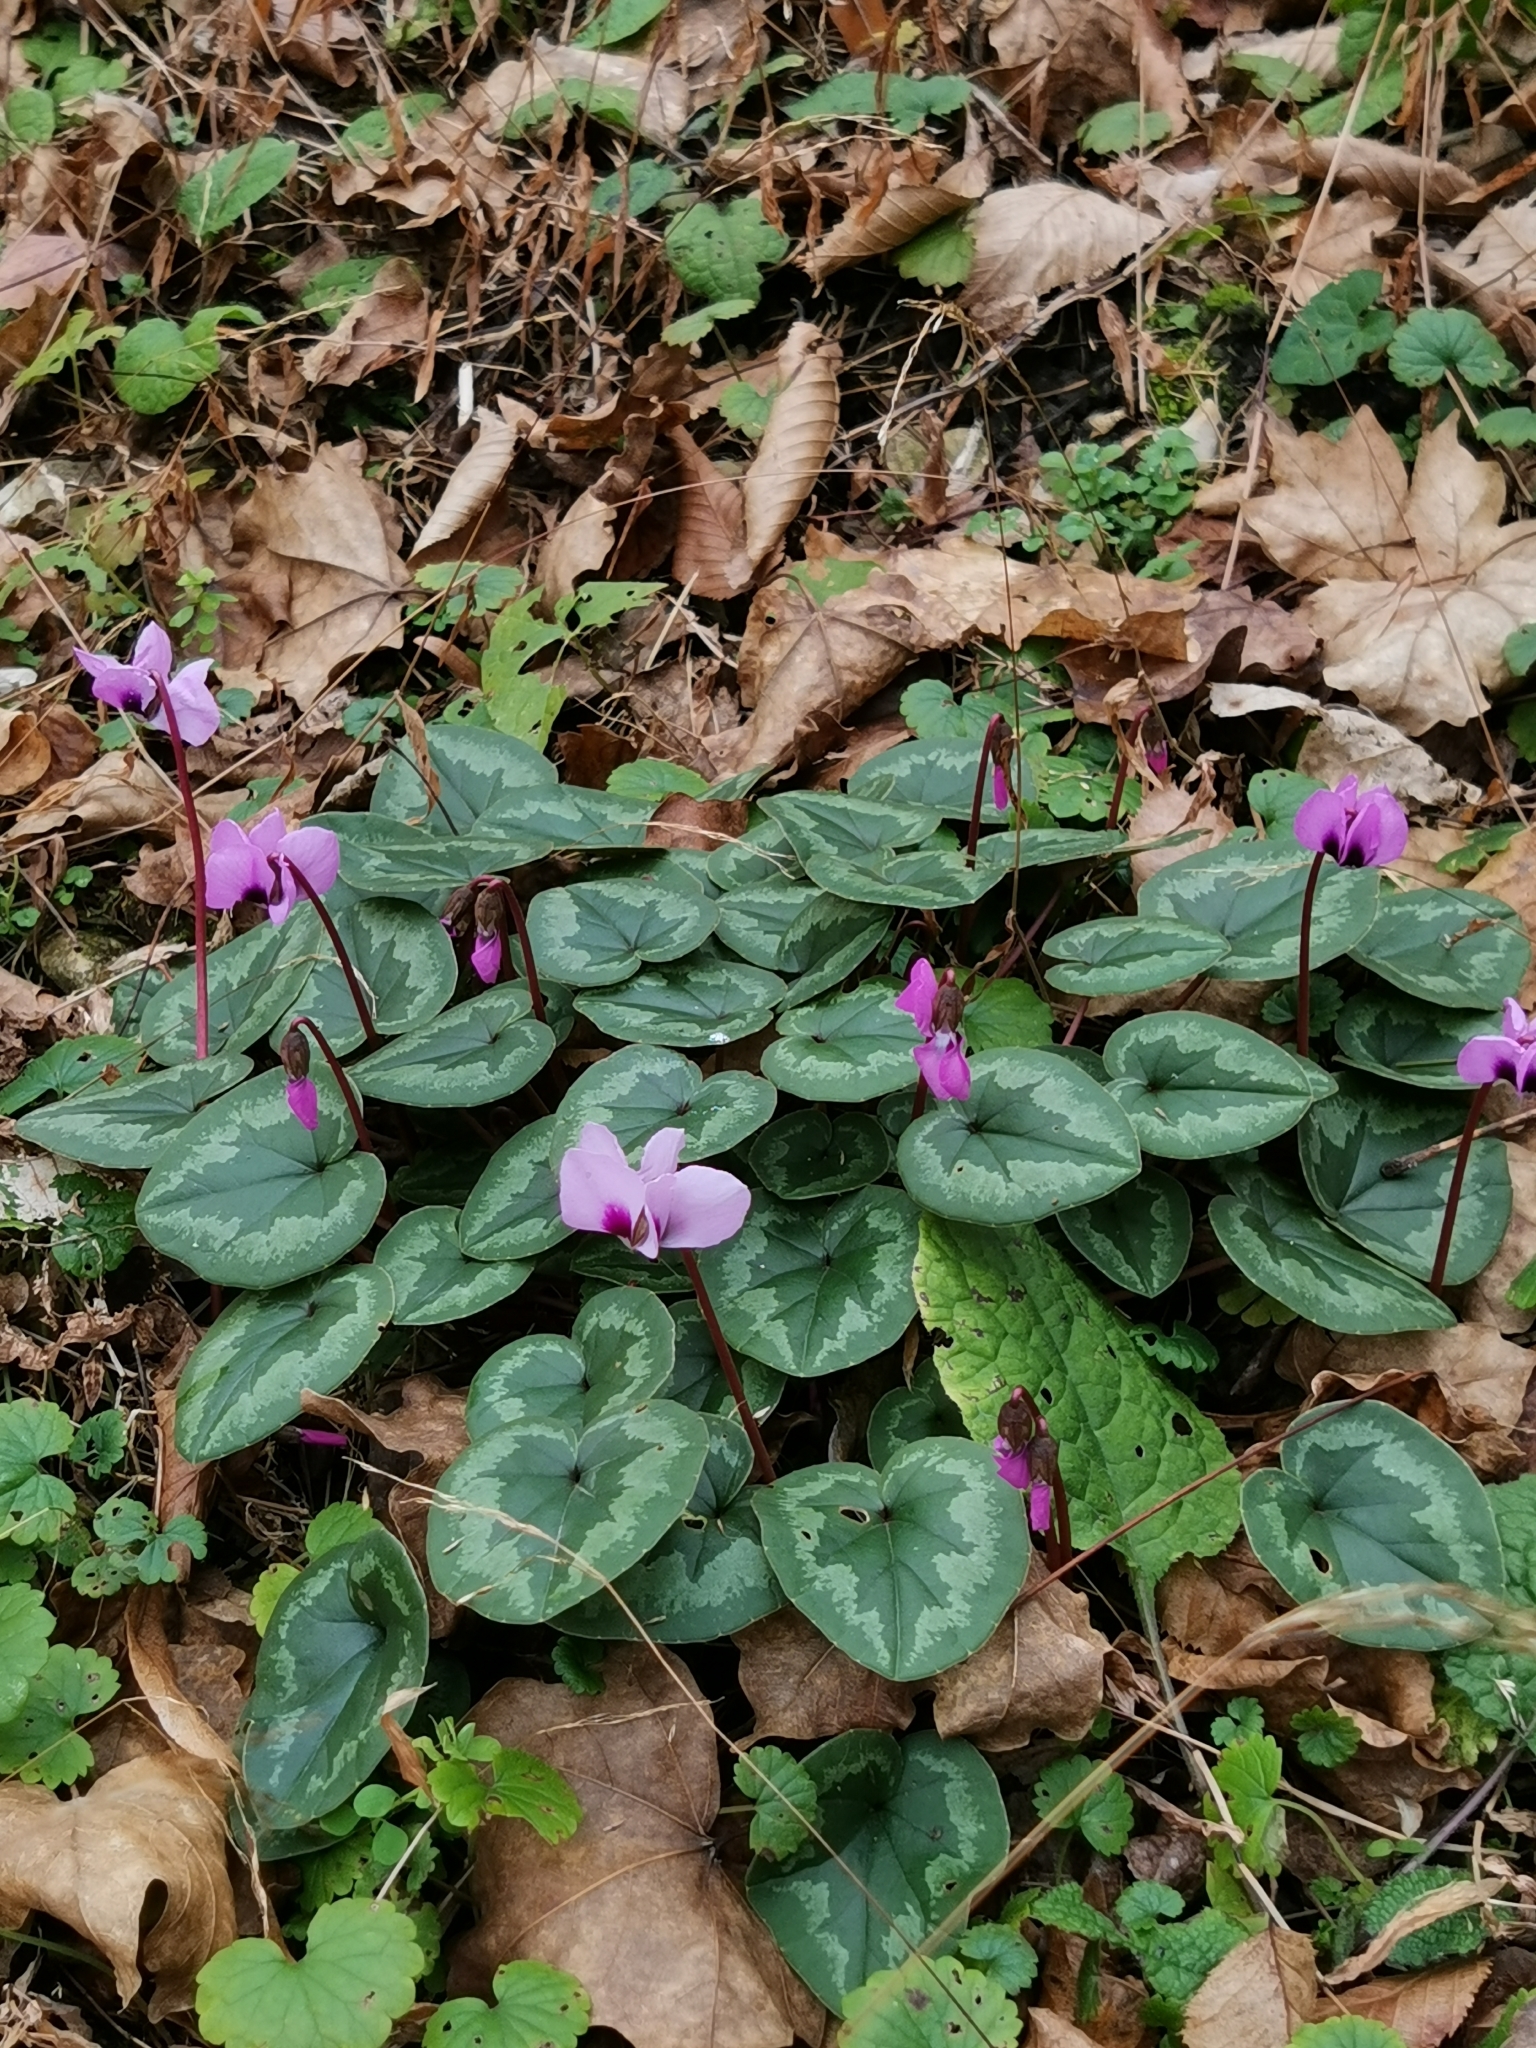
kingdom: Plantae
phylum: Tracheophyta
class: Magnoliopsida
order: Ericales
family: Primulaceae
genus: Cyclamen
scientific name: Cyclamen coum
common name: Eastern sowbread
